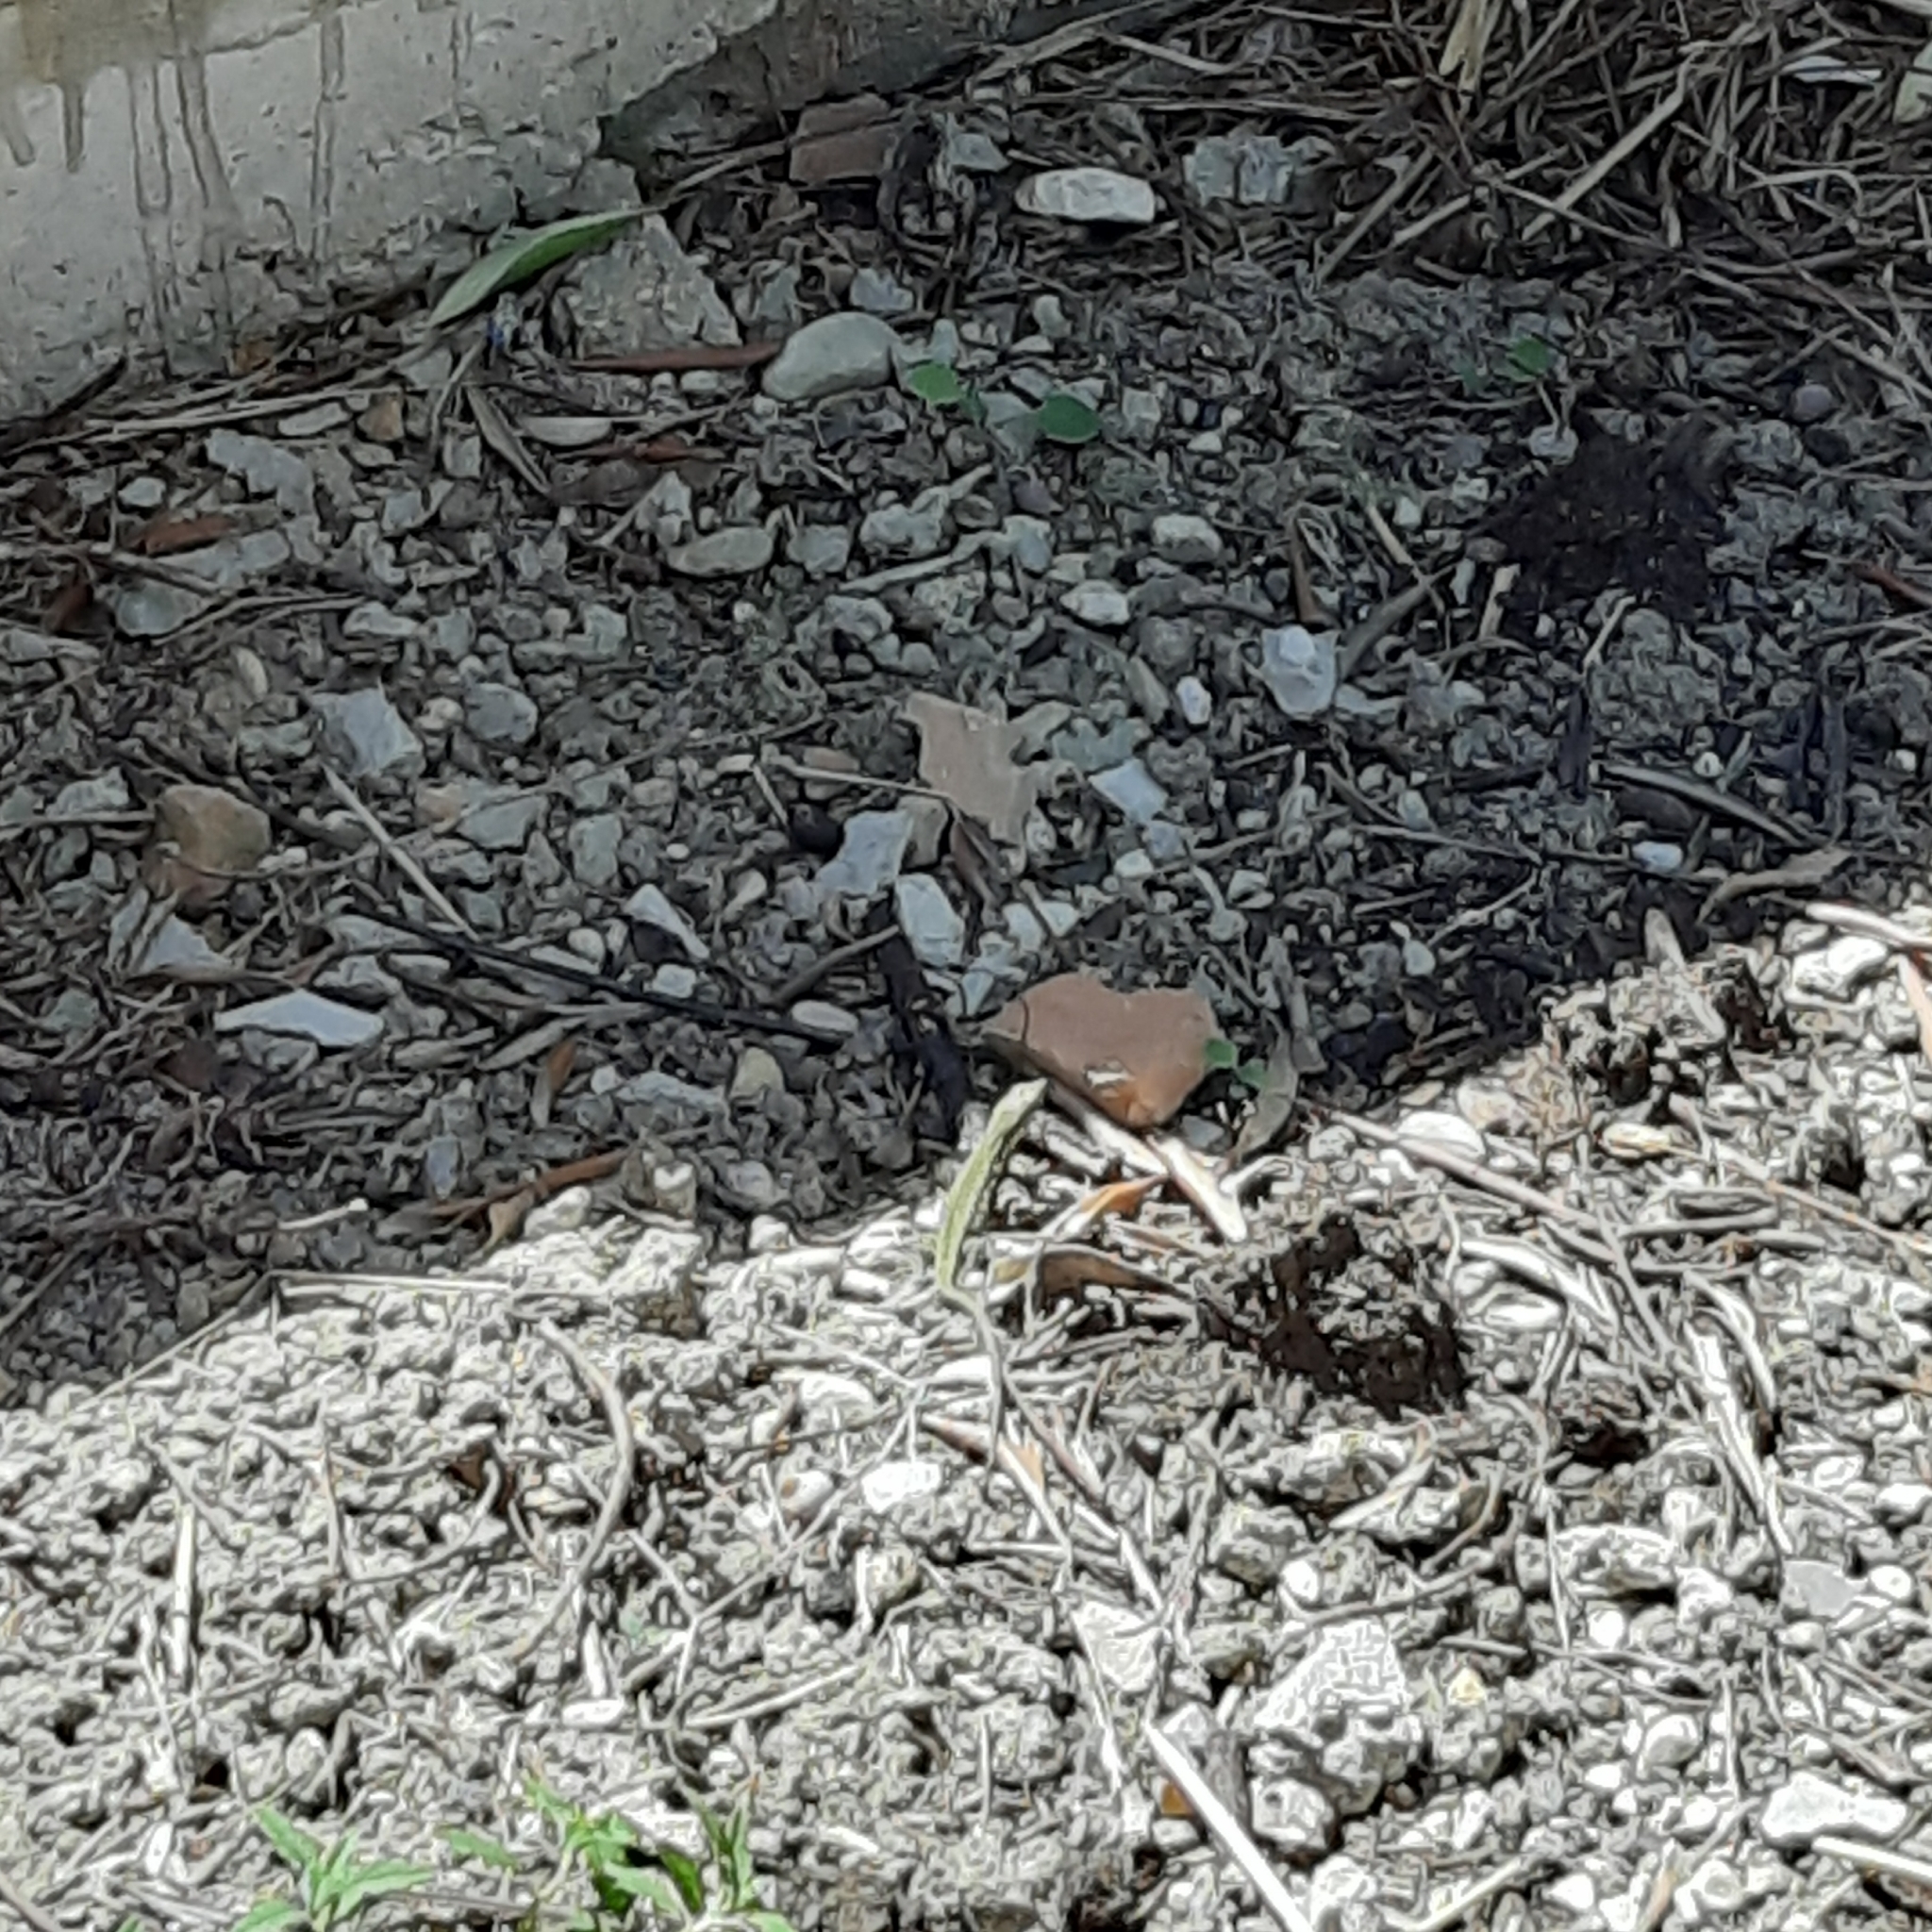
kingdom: Animalia
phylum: Chordata
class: Squamata
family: Lacertidae
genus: Podarcis
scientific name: Podarcis muralis
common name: Common wall lizard
